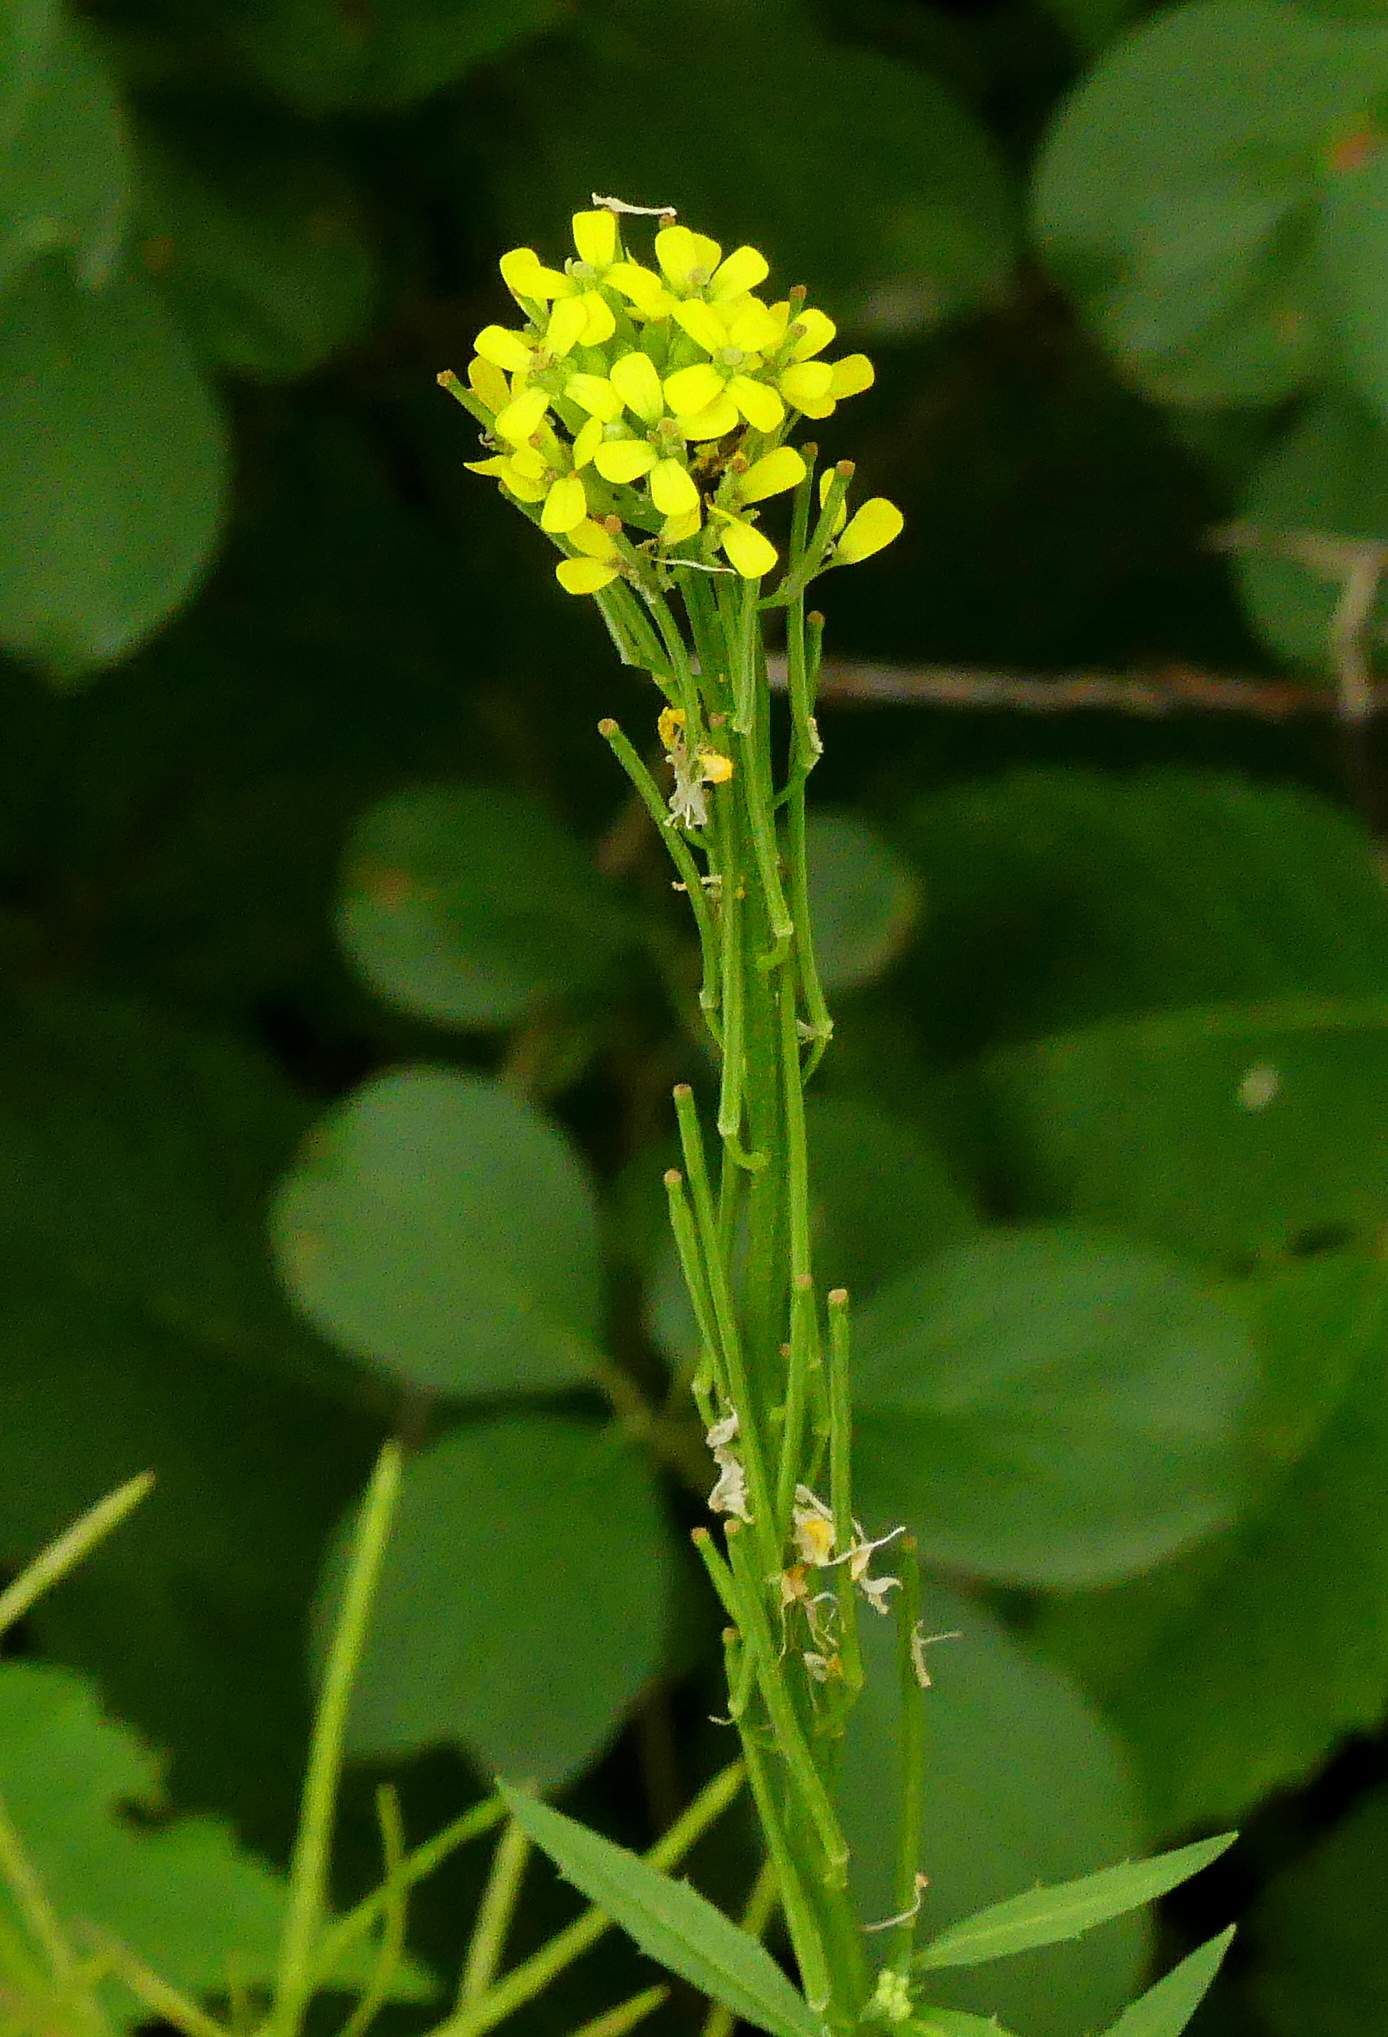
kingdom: Plantae
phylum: Tracheophyta
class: Magnoliopsida
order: Brassicales
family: Brassicaceae
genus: Erysimum
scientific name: Erysimum cheiranthoides
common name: Treacle mustard
